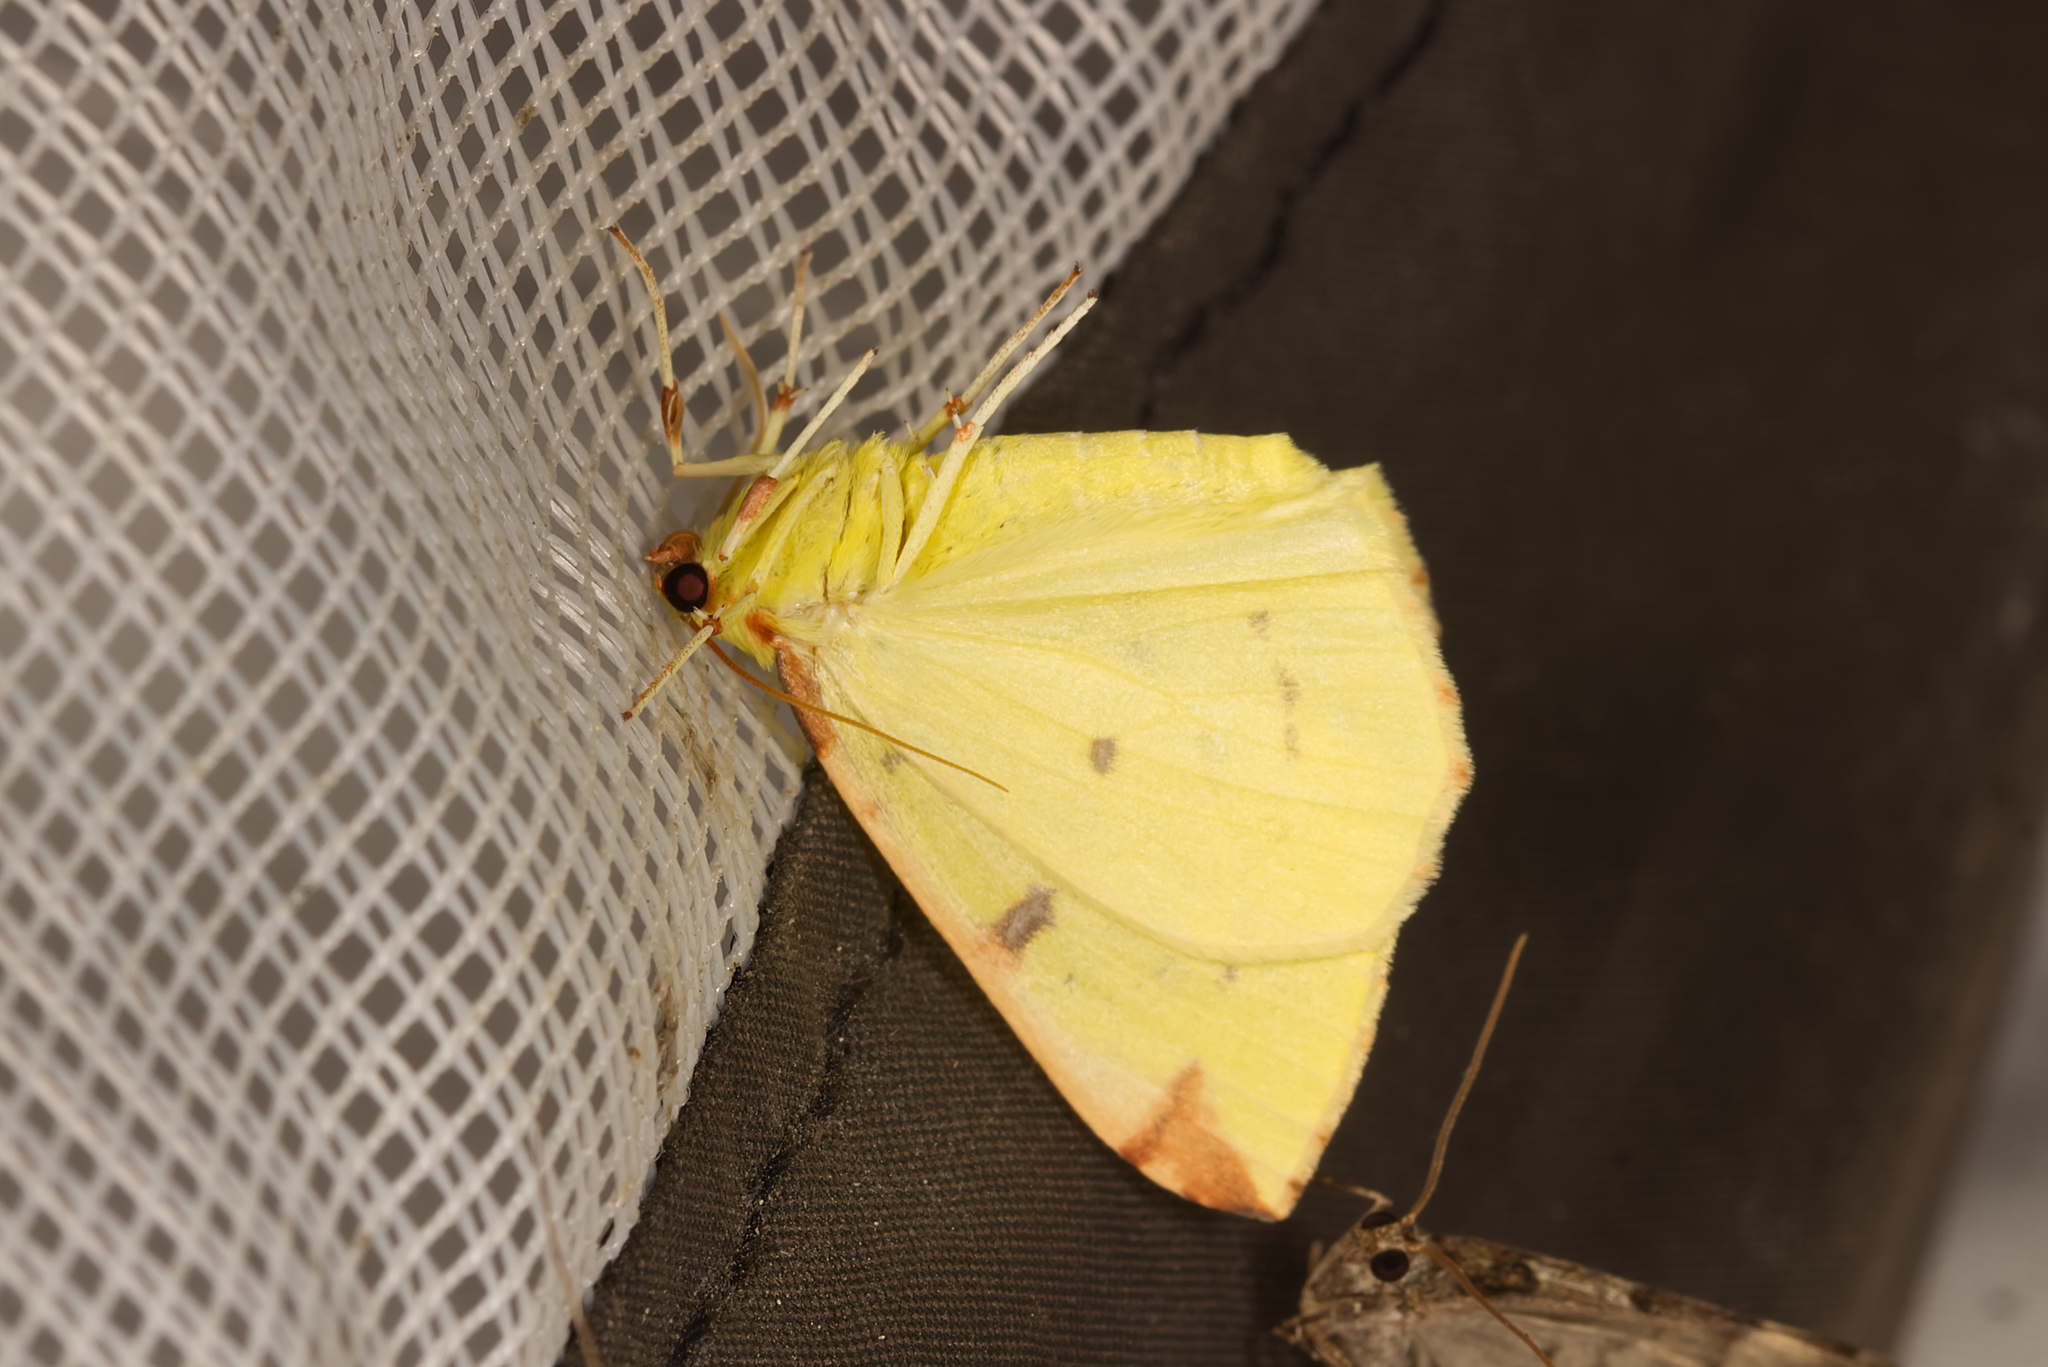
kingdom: Animalia
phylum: Arthropoda
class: Insecta
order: Lepidoptera
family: Geometridae
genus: Opisthograptis
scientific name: Opisthograptis luteolata
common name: Brimstone moth
